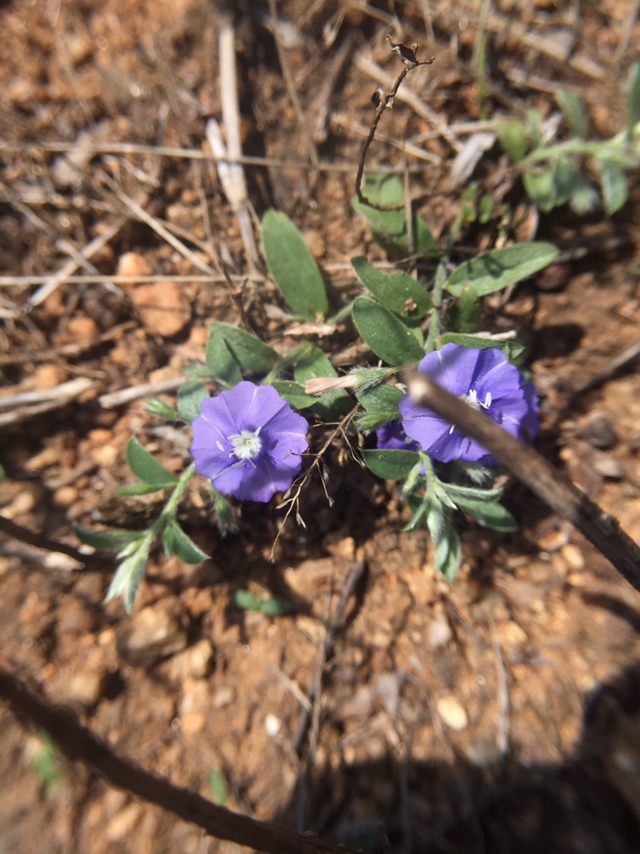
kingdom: Plantae
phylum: Tracheophyta
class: Magnoliopsida
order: Solanales
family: Convolvulaceae
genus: Evolvulus
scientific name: Evolvulus alsinoides
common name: Slender dwarf morning-glory
